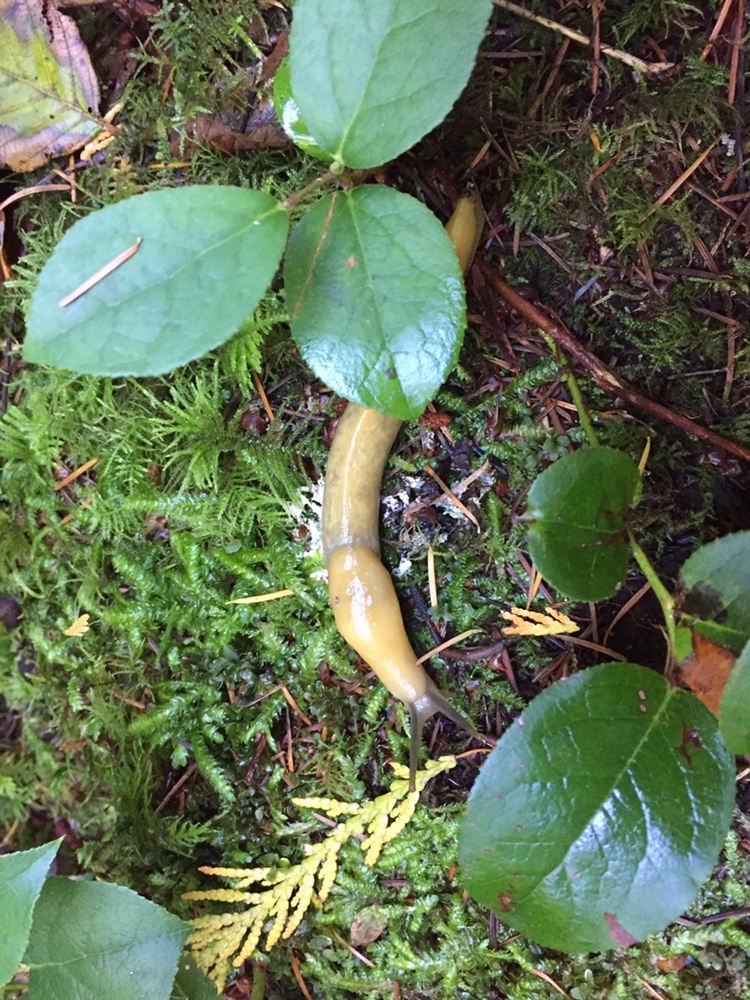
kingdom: Animalia
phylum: Mollusca
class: Gastropoda
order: Stylommatophora
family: Ariolimacidae
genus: Ariolimax
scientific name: Ariolimax columbianus
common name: Pacific banana slug
